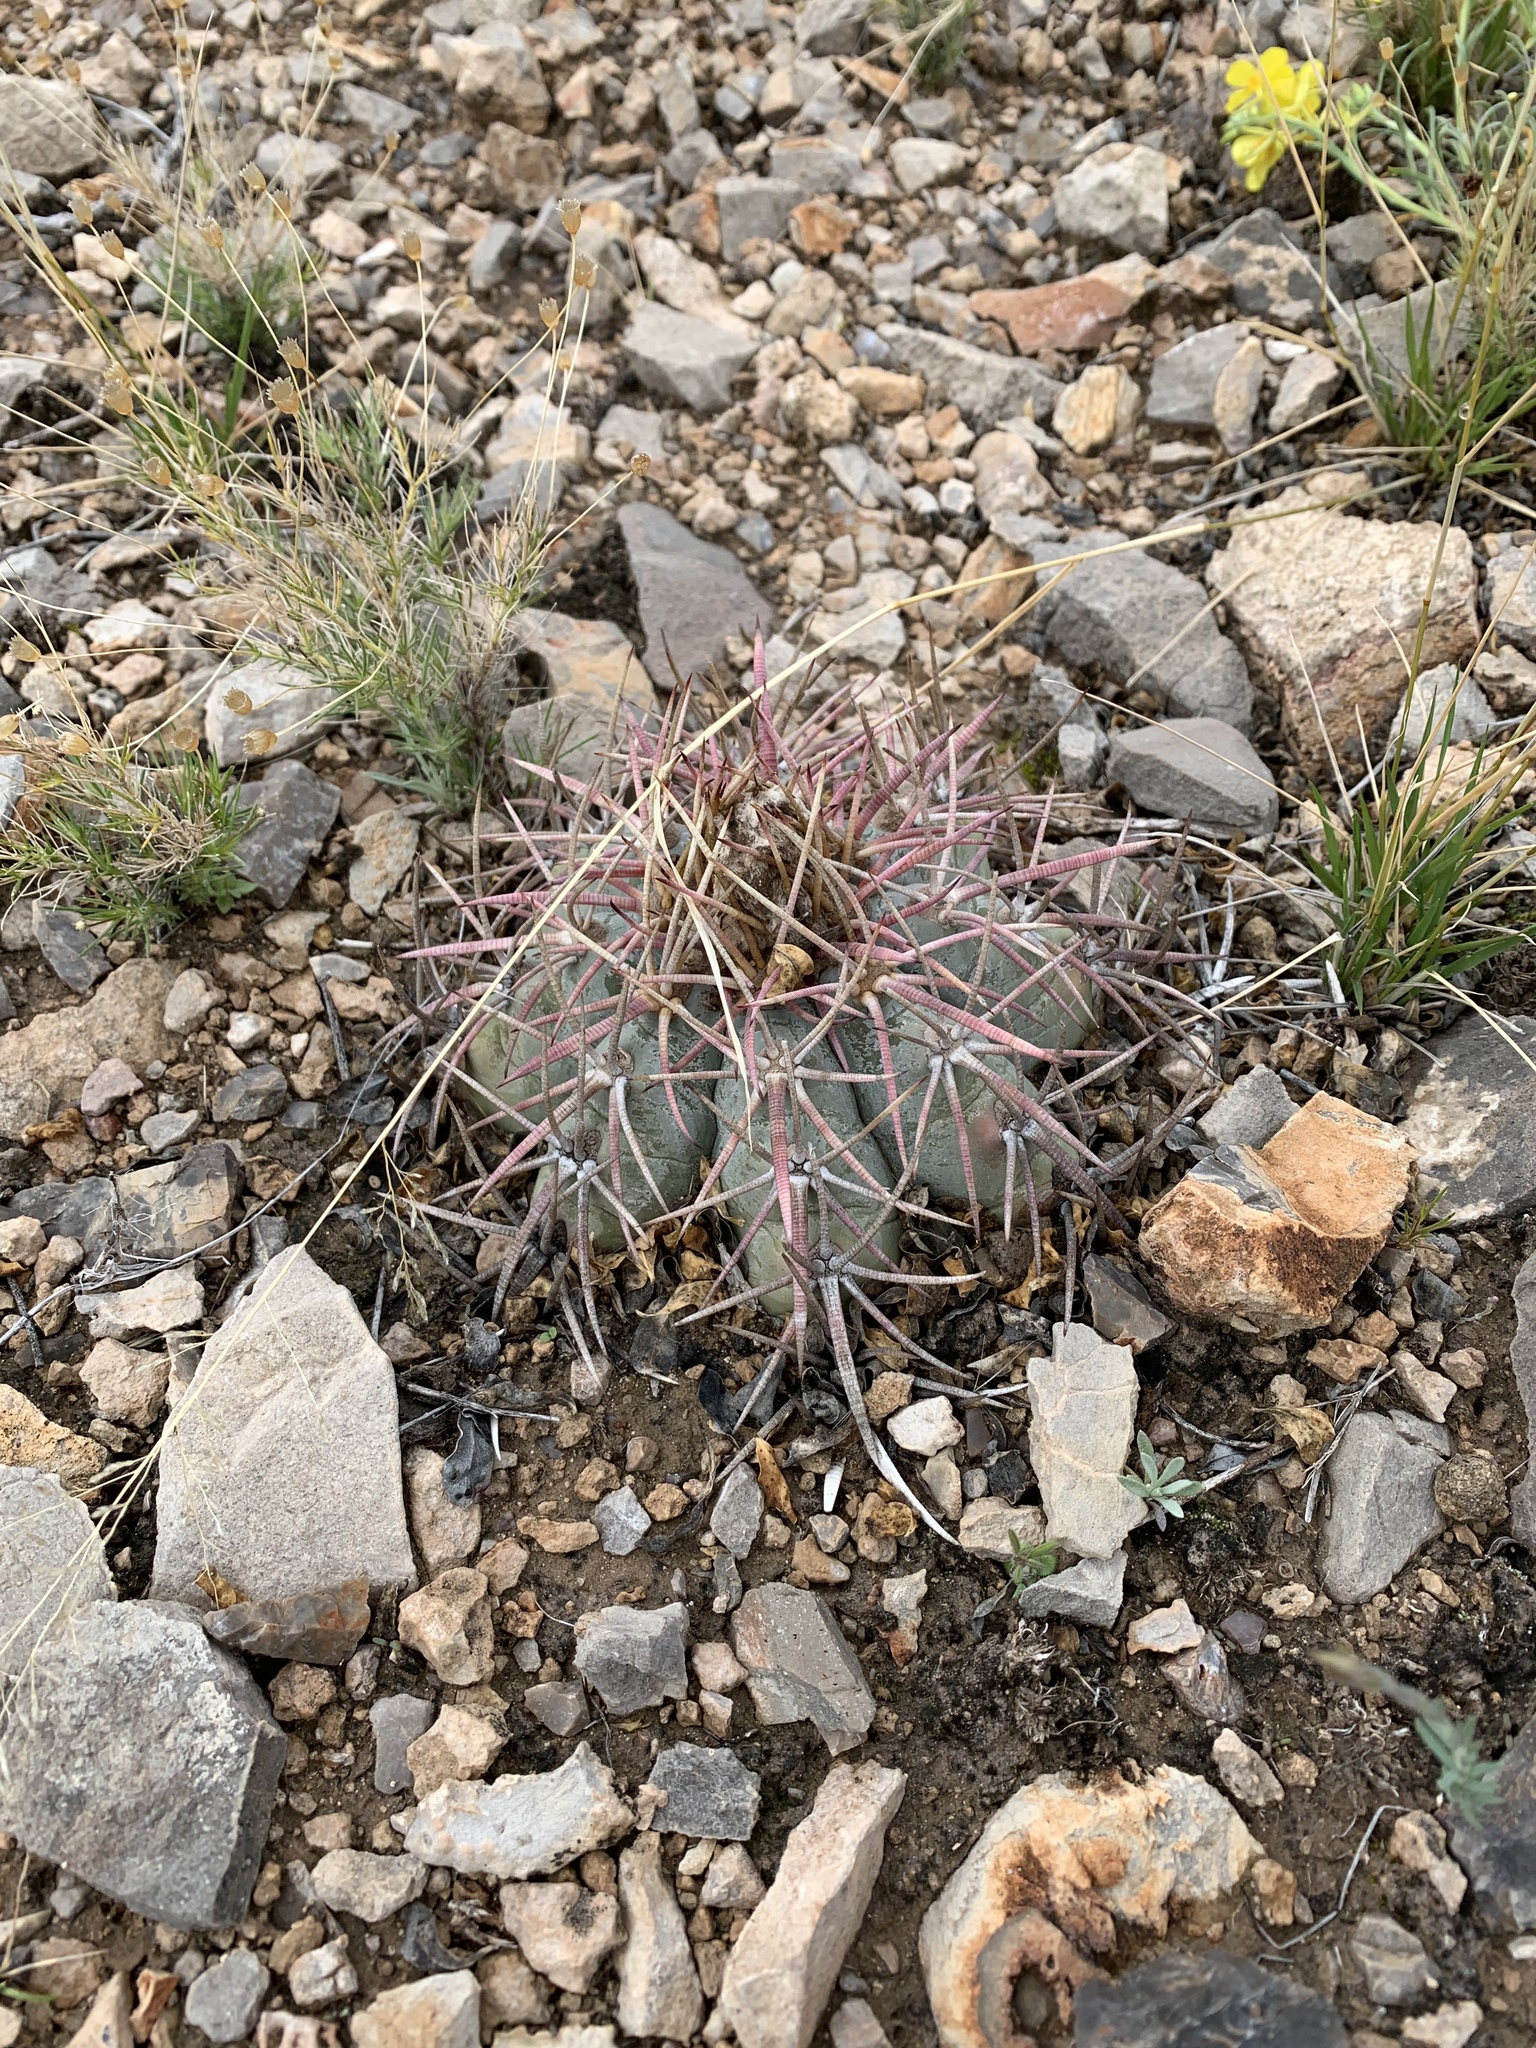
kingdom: Plantae
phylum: Tracheophyta
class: Magnoliopsida
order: Caryophyllales
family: Cactaceae
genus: Echinocactus
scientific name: Echinocactus horizonthalonius
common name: Devilshead
